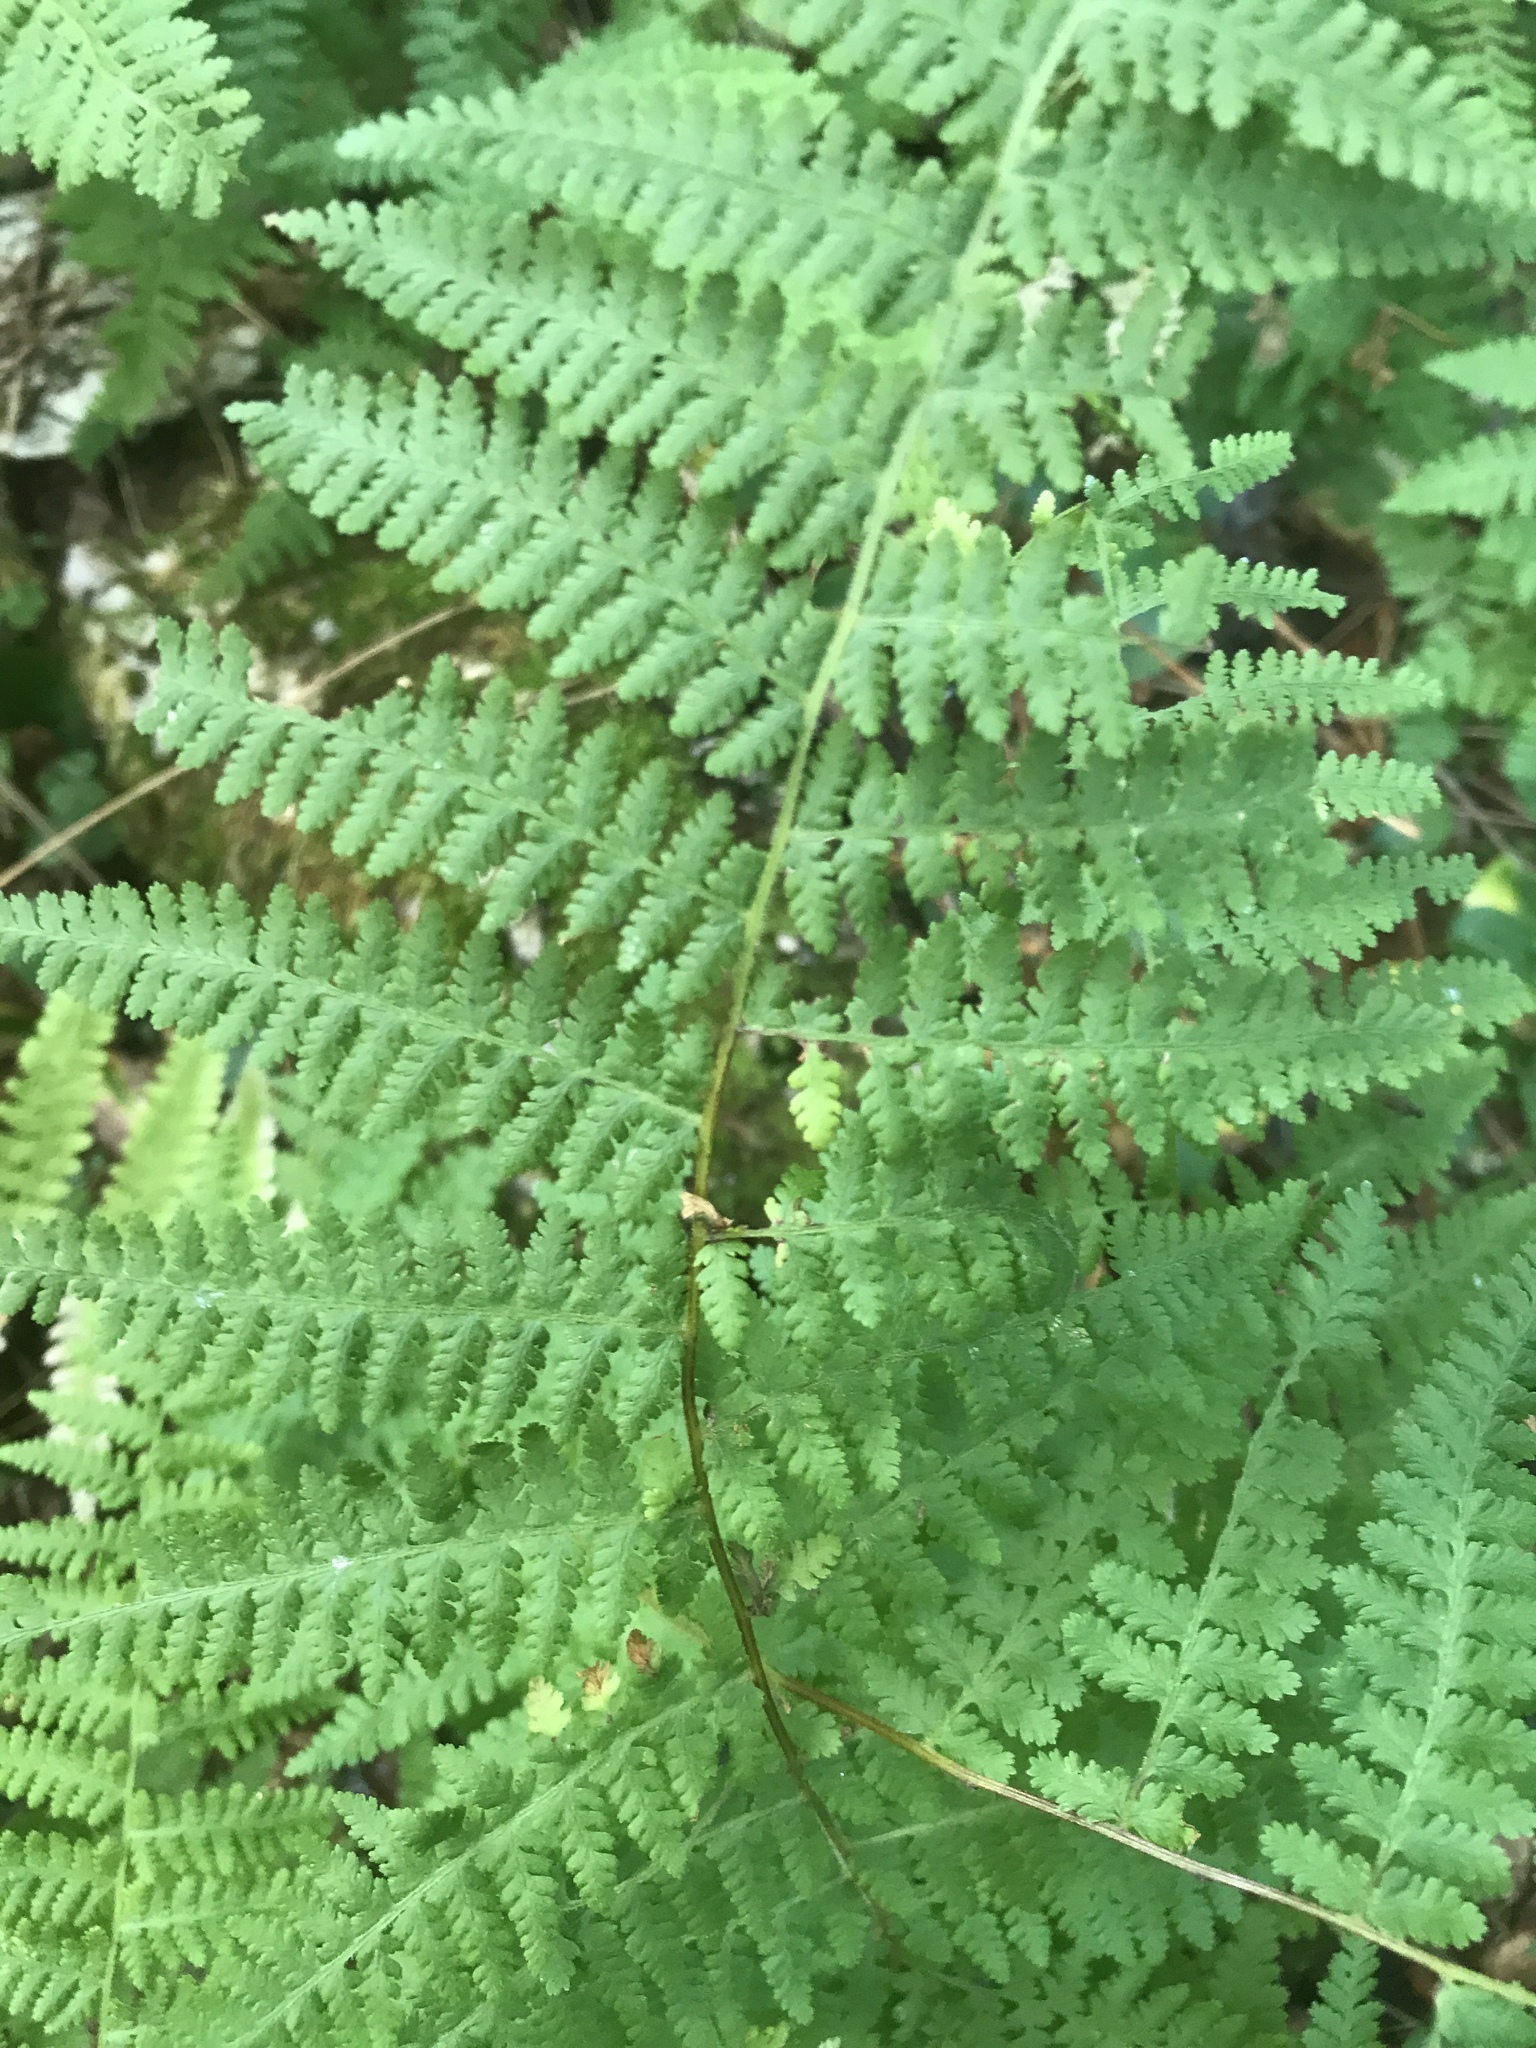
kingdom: Plantae
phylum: Tracheophyta
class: Polypodiopsida
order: Polypodiales
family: Dennstaedtiaceae
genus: Sitobolium
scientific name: Sitobolium punctilobum
